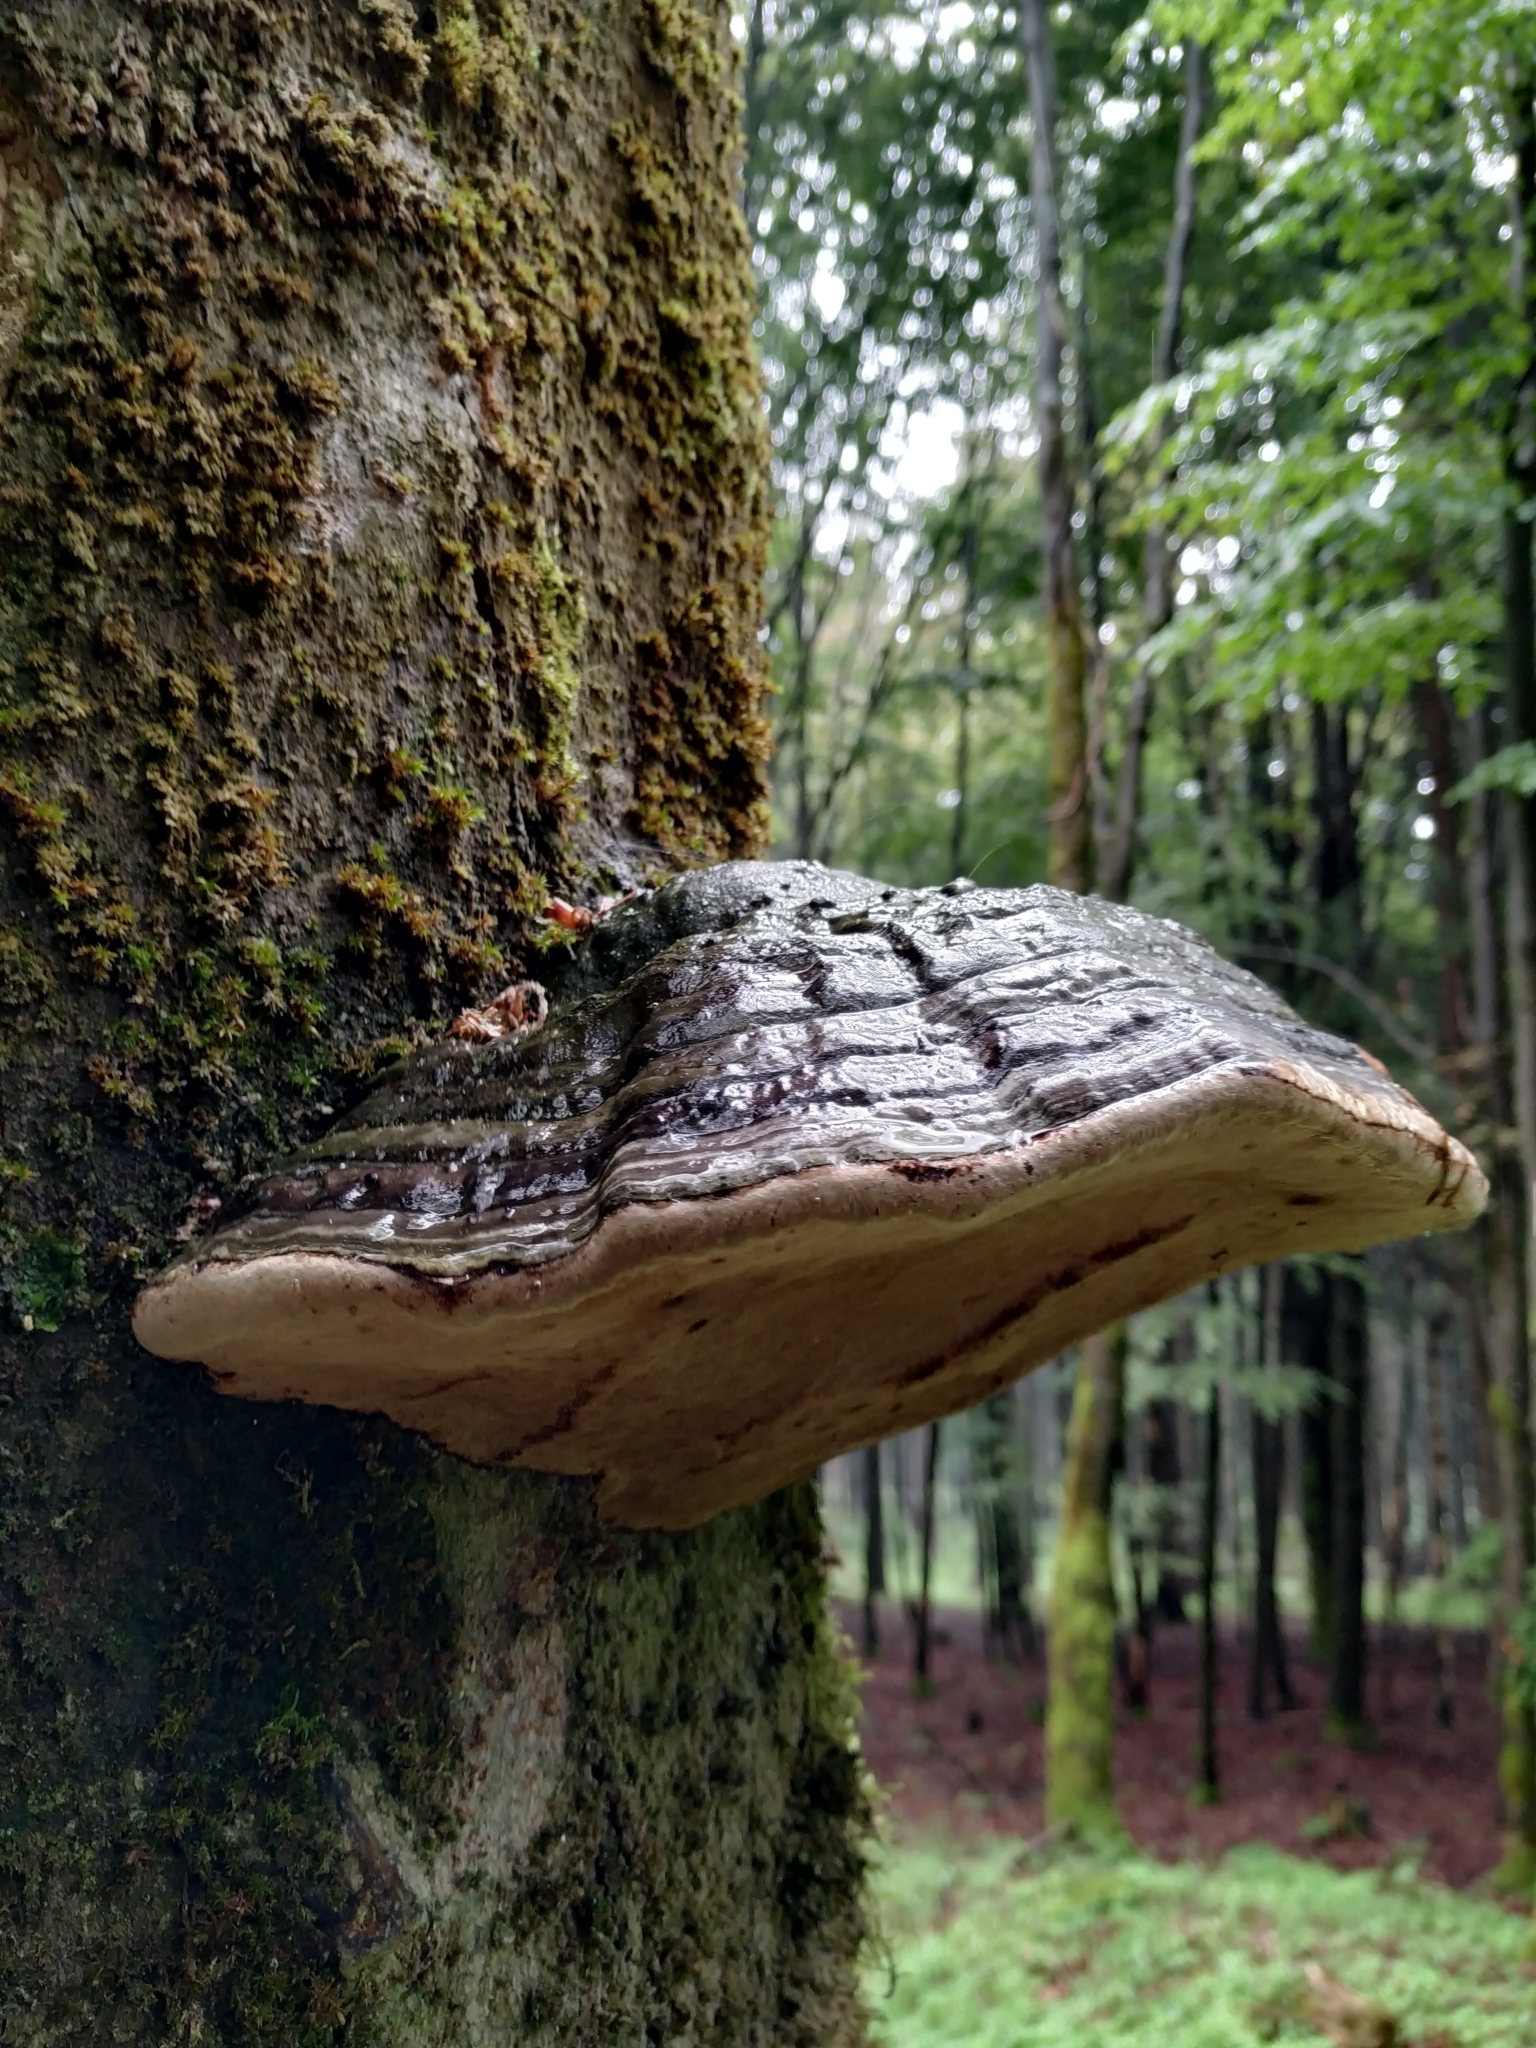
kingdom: Fungi
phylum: Basidiomycota
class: Agaricomycetes
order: Polyporales
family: Polyporaceae
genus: Fomes
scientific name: Fomes fomentarius
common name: Hoof fungus
